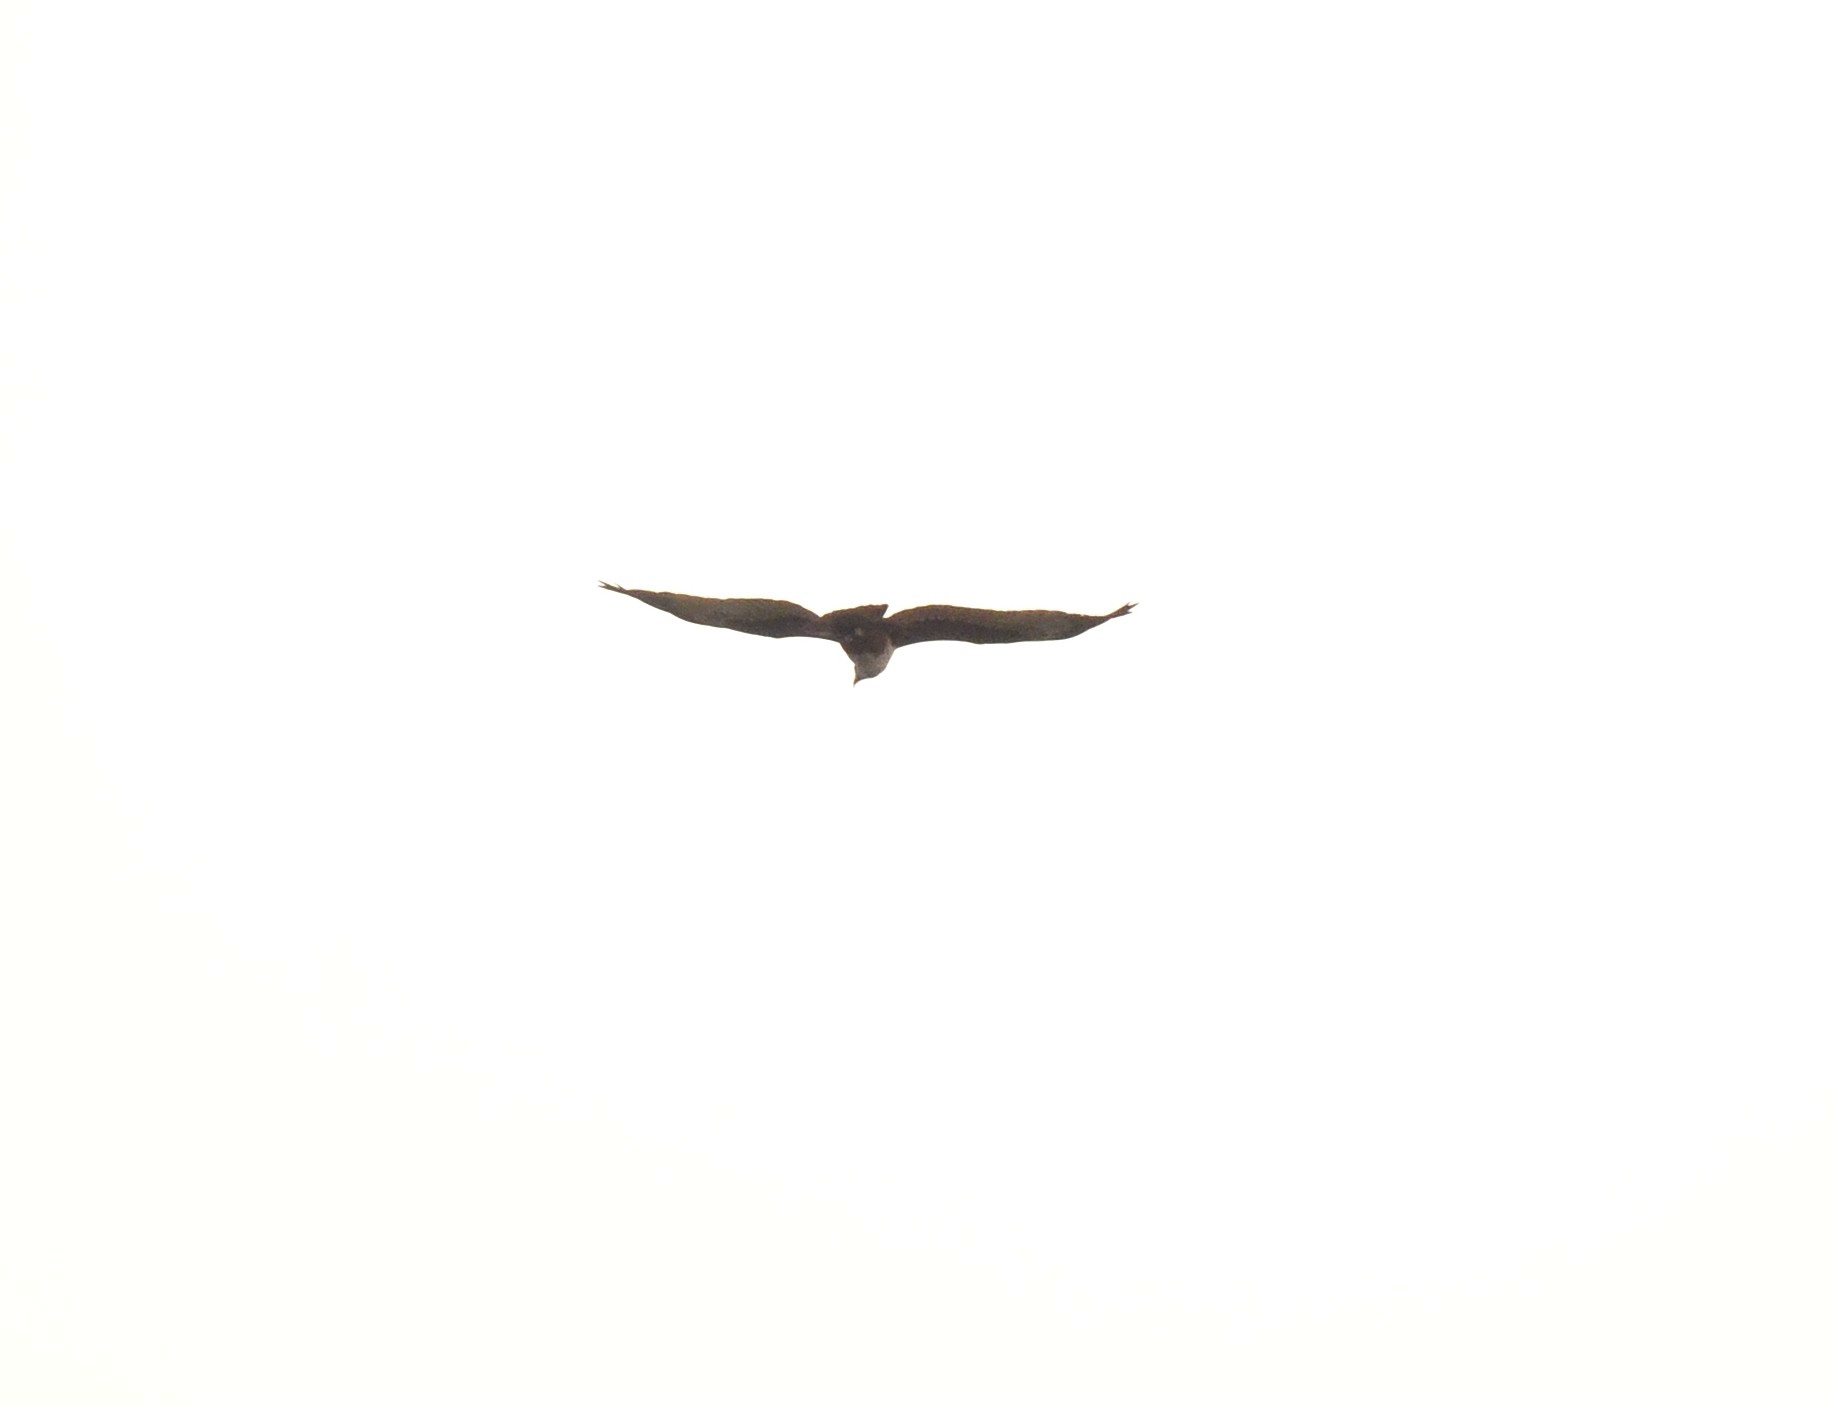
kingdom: Animalia
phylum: Chordata
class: Aves
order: Accipitriformes
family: Accipitridae
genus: Haliastur
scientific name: Haliastur indus
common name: Brahminy kite
